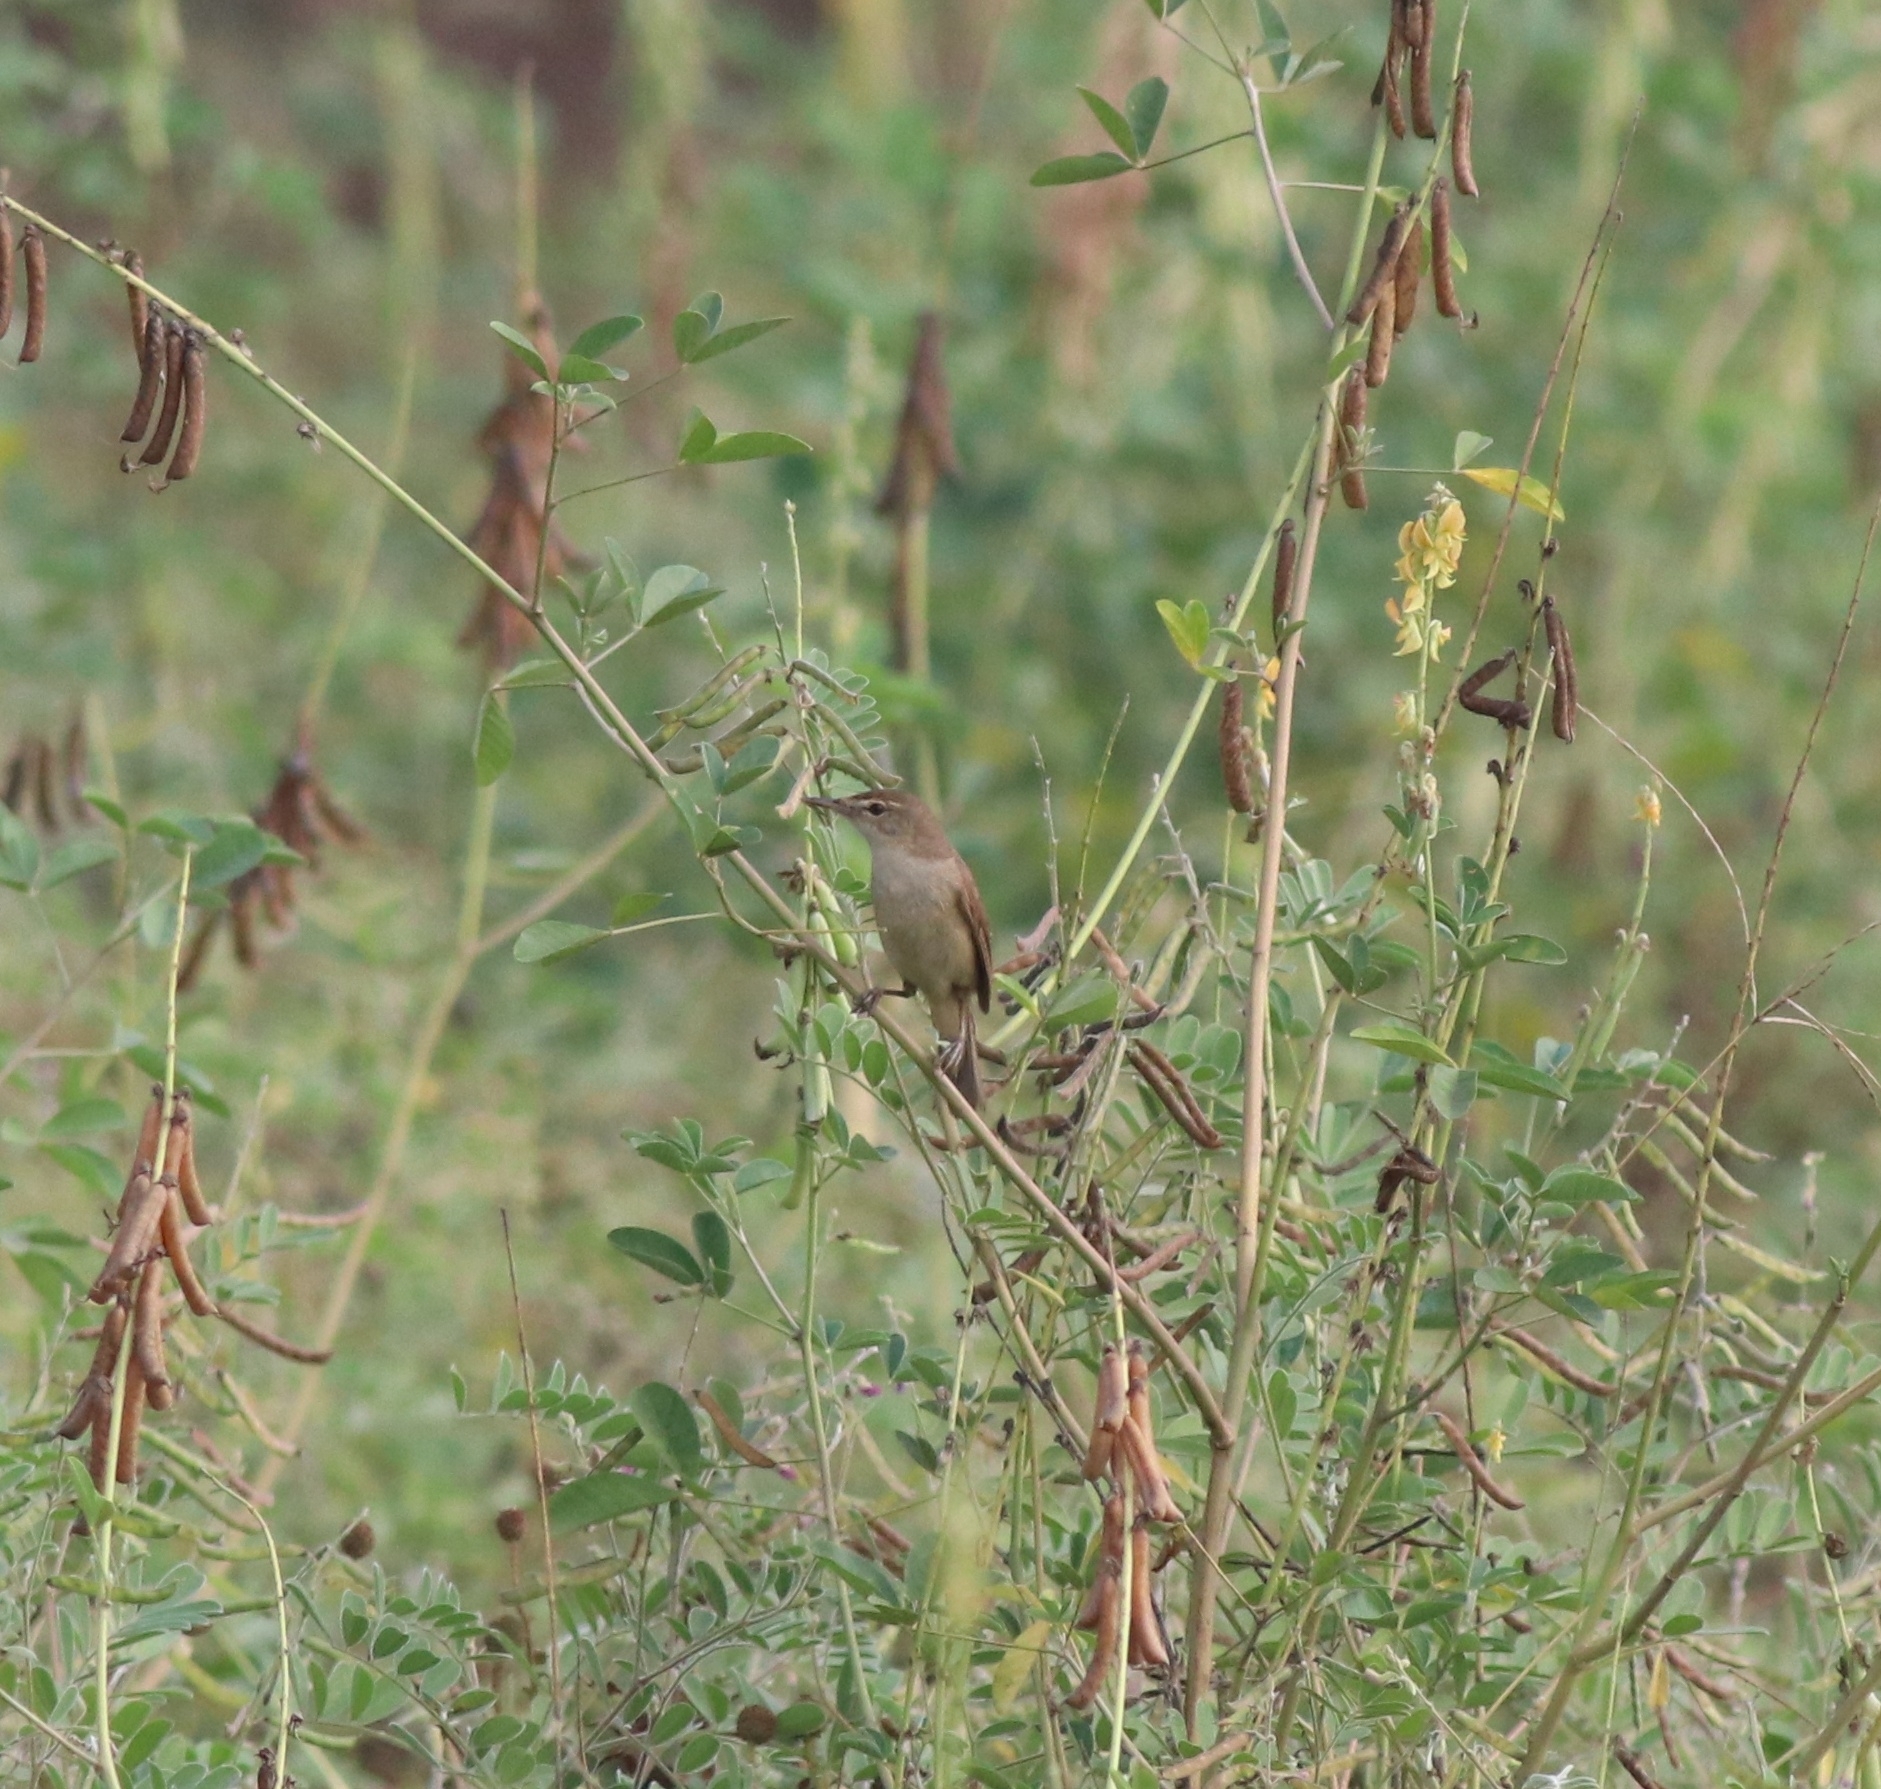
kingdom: Animalia
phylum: Chordata
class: Aves
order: Passeriformes
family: Acrocephalidae
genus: Acrocephalus
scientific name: Acrocephalus dumetorum
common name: Blyth's reed warbler
